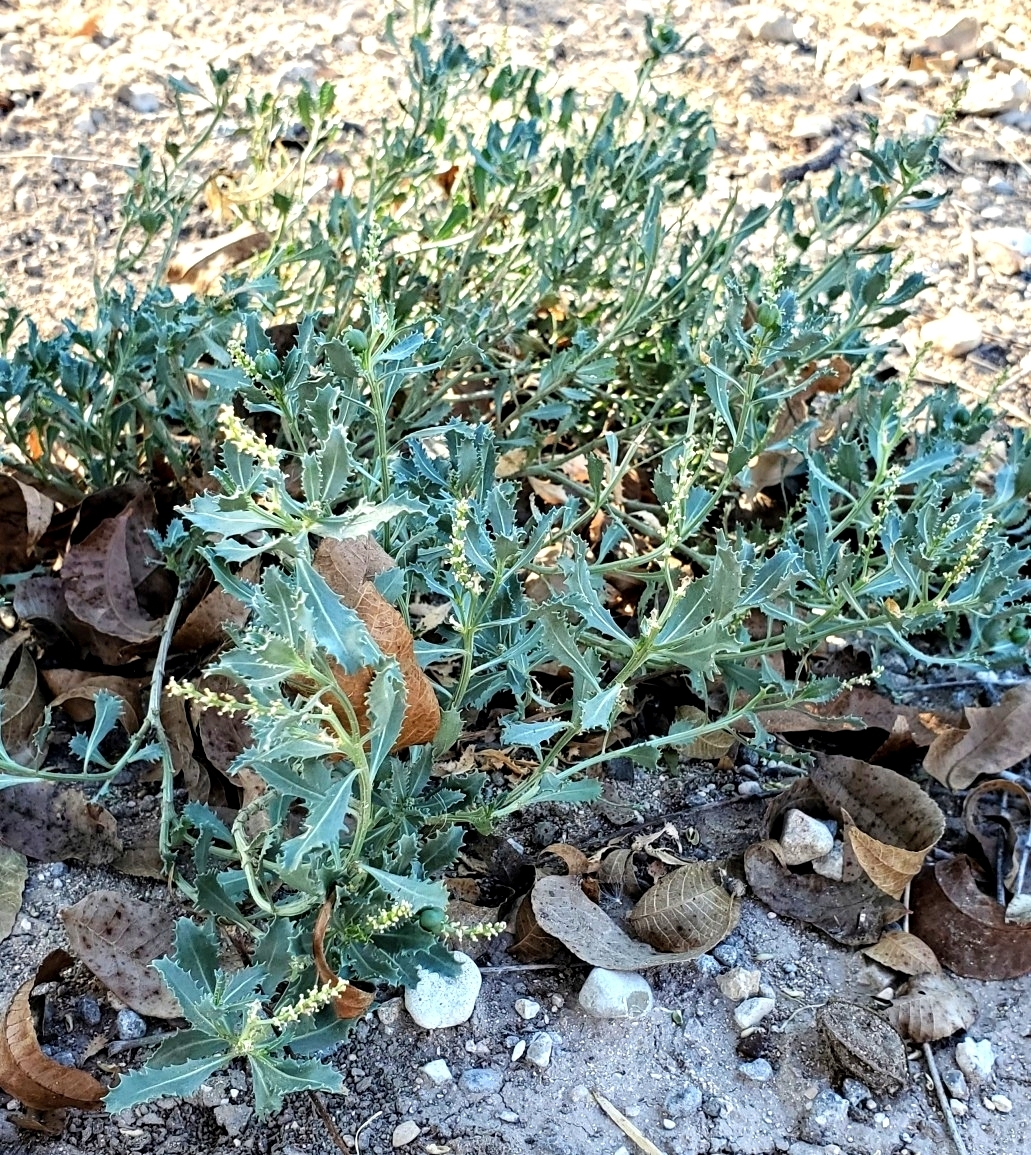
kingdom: Plantae
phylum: Tracheophyta
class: Magnoliopsida
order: Malpighiales
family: Euphorbiaceae
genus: Stillingia
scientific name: Stillingia treculiana
